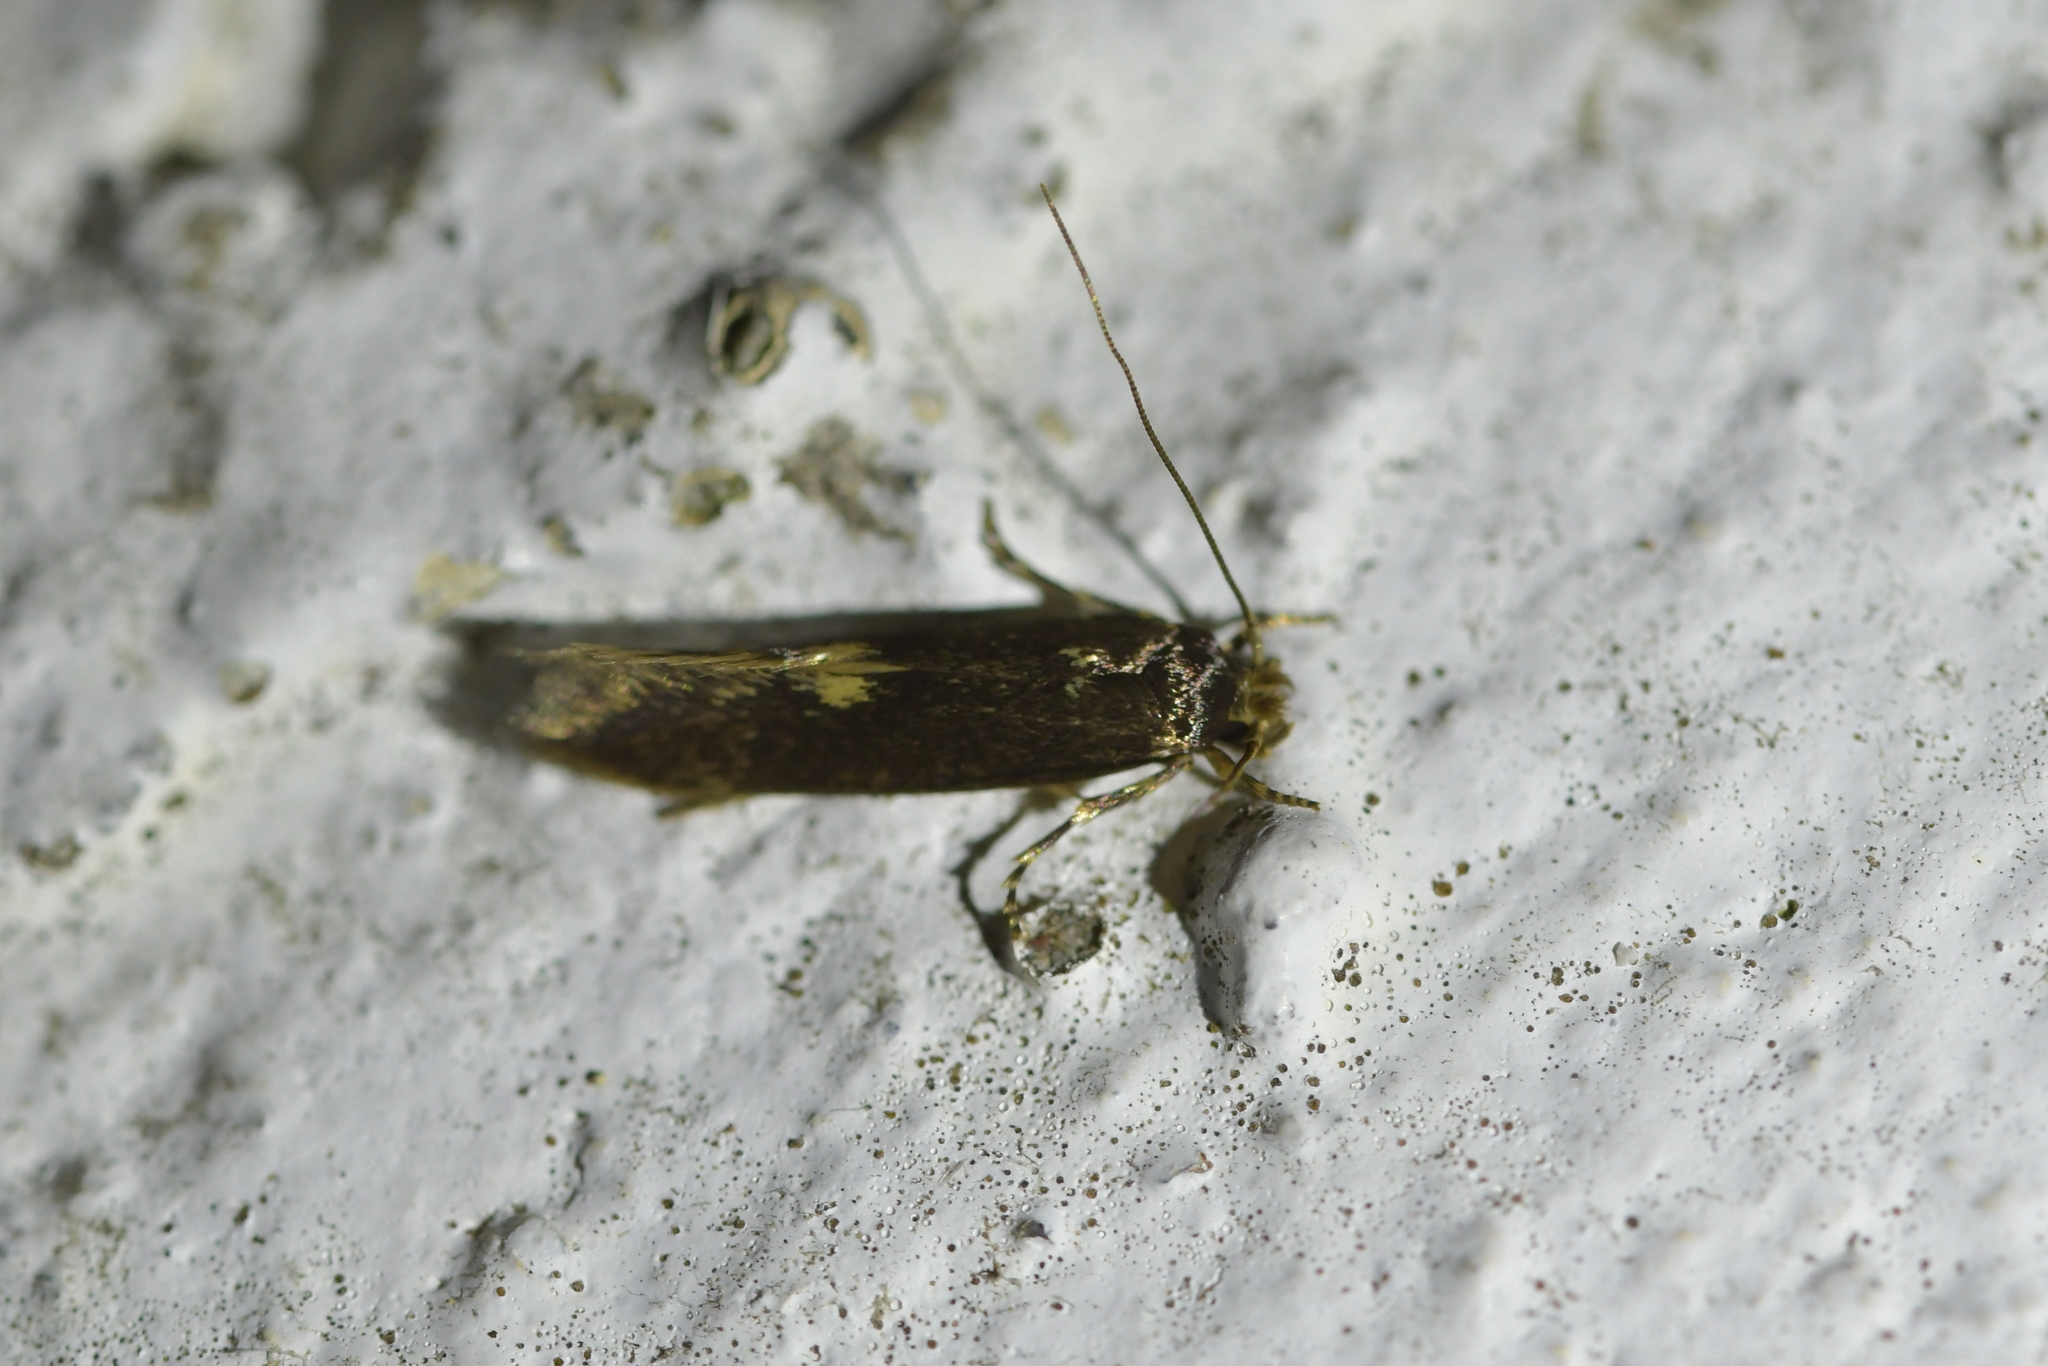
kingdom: Animalia
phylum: Arthropoda
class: Insecta
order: Lepidoptera
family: Tineidae
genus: Opogona
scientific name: Opogona omoscopa
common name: Moth
